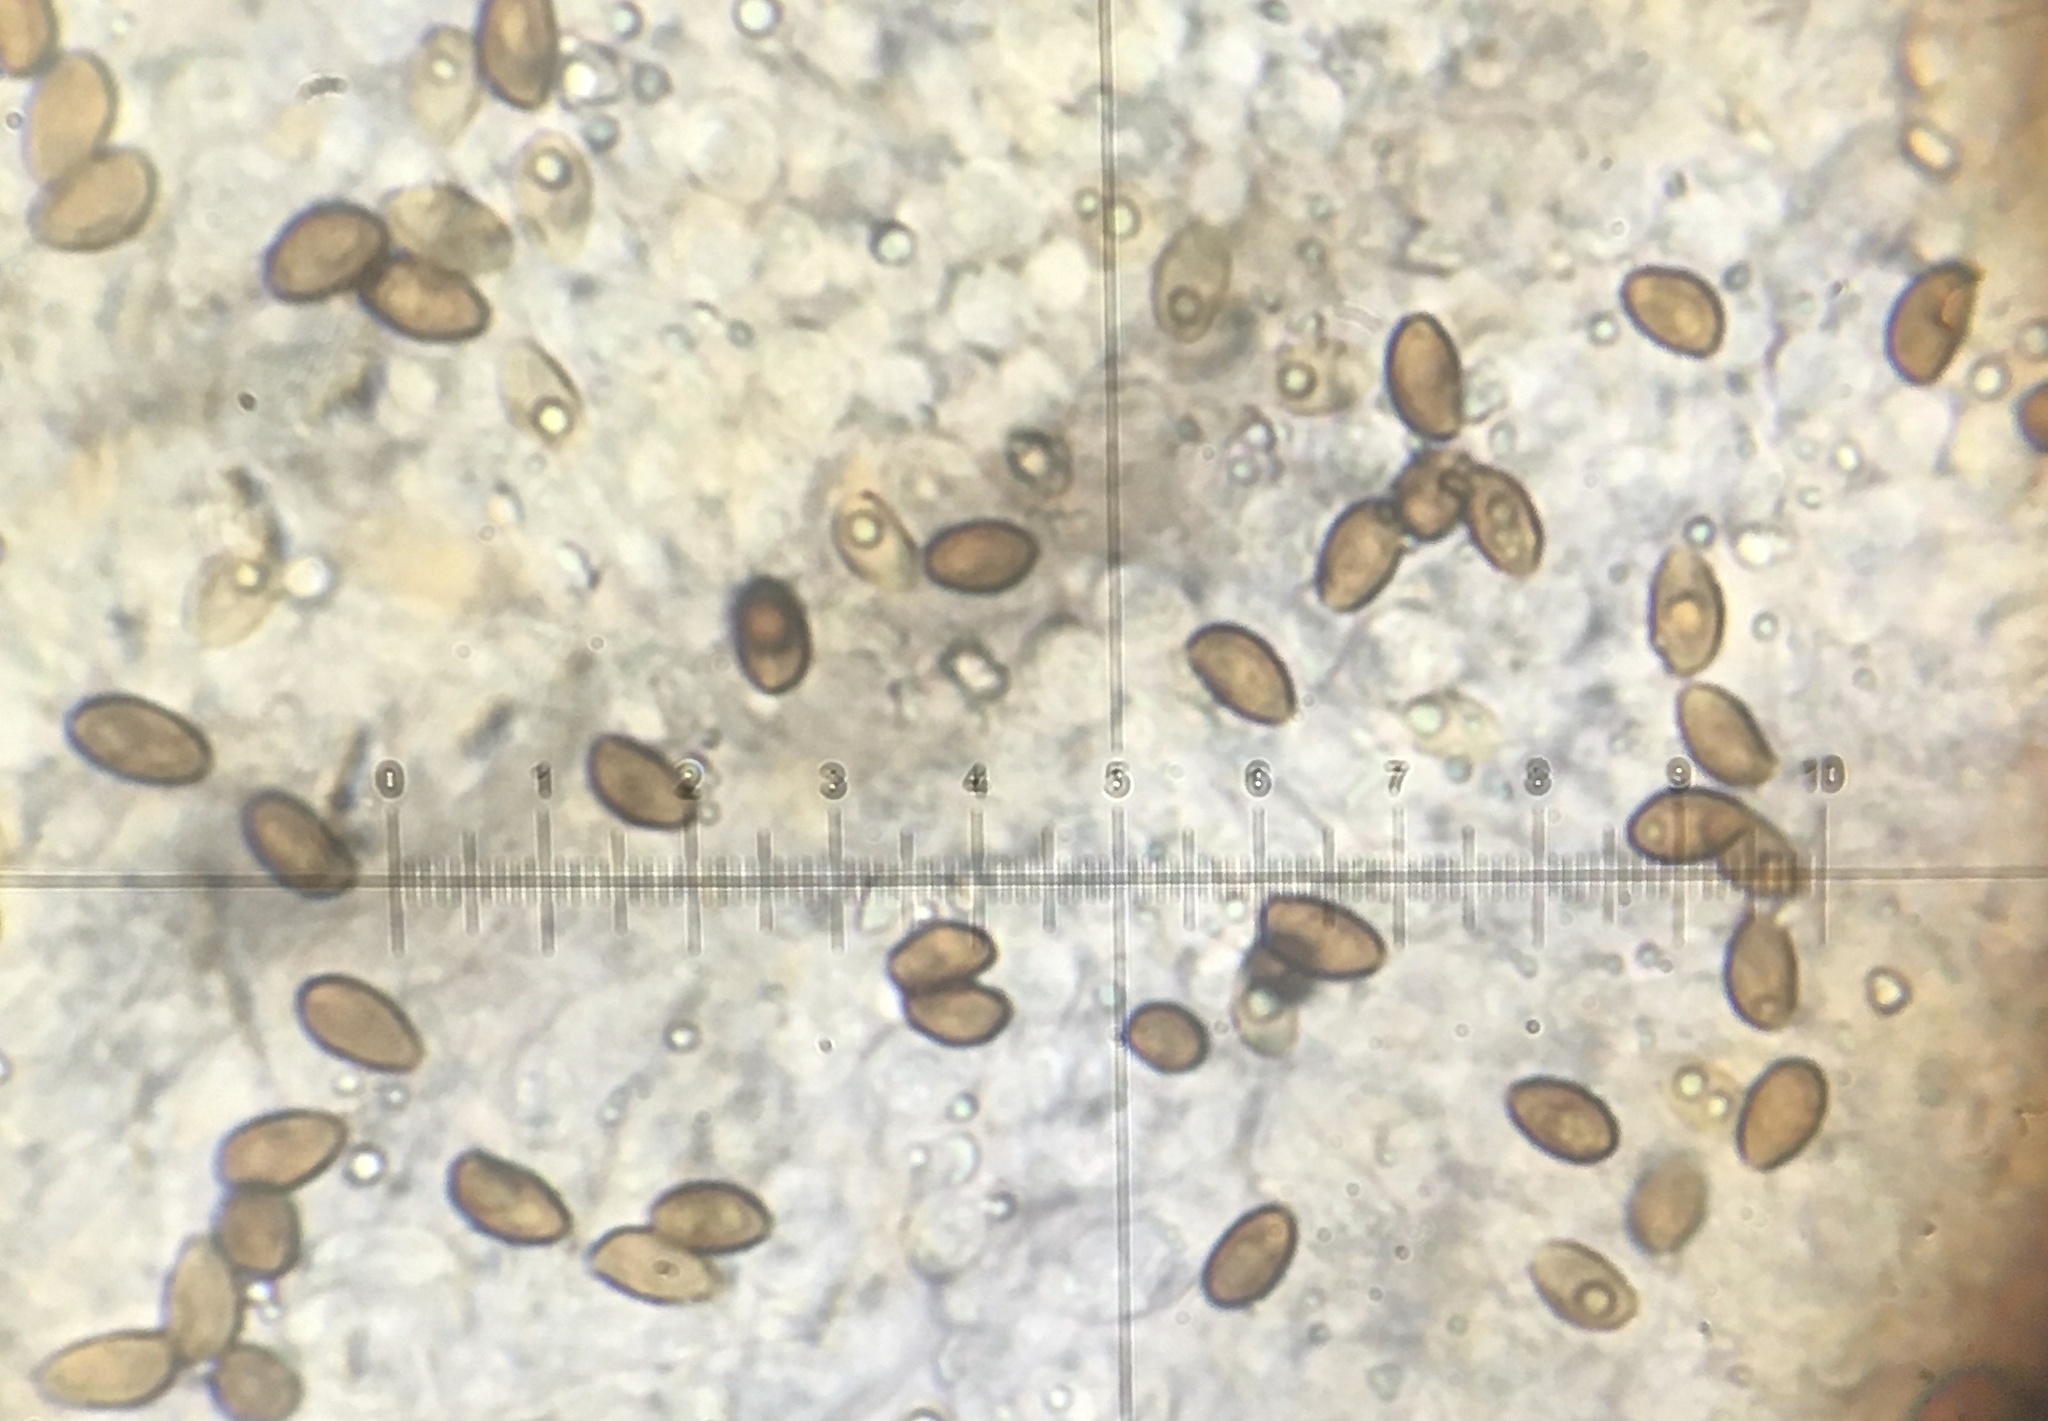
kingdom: Fungi
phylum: Basidiomycota
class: Agaricomycetes
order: Agaricales
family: Hymenogastraceae
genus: Galerina
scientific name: Galerina marginata
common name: Funeral bell
